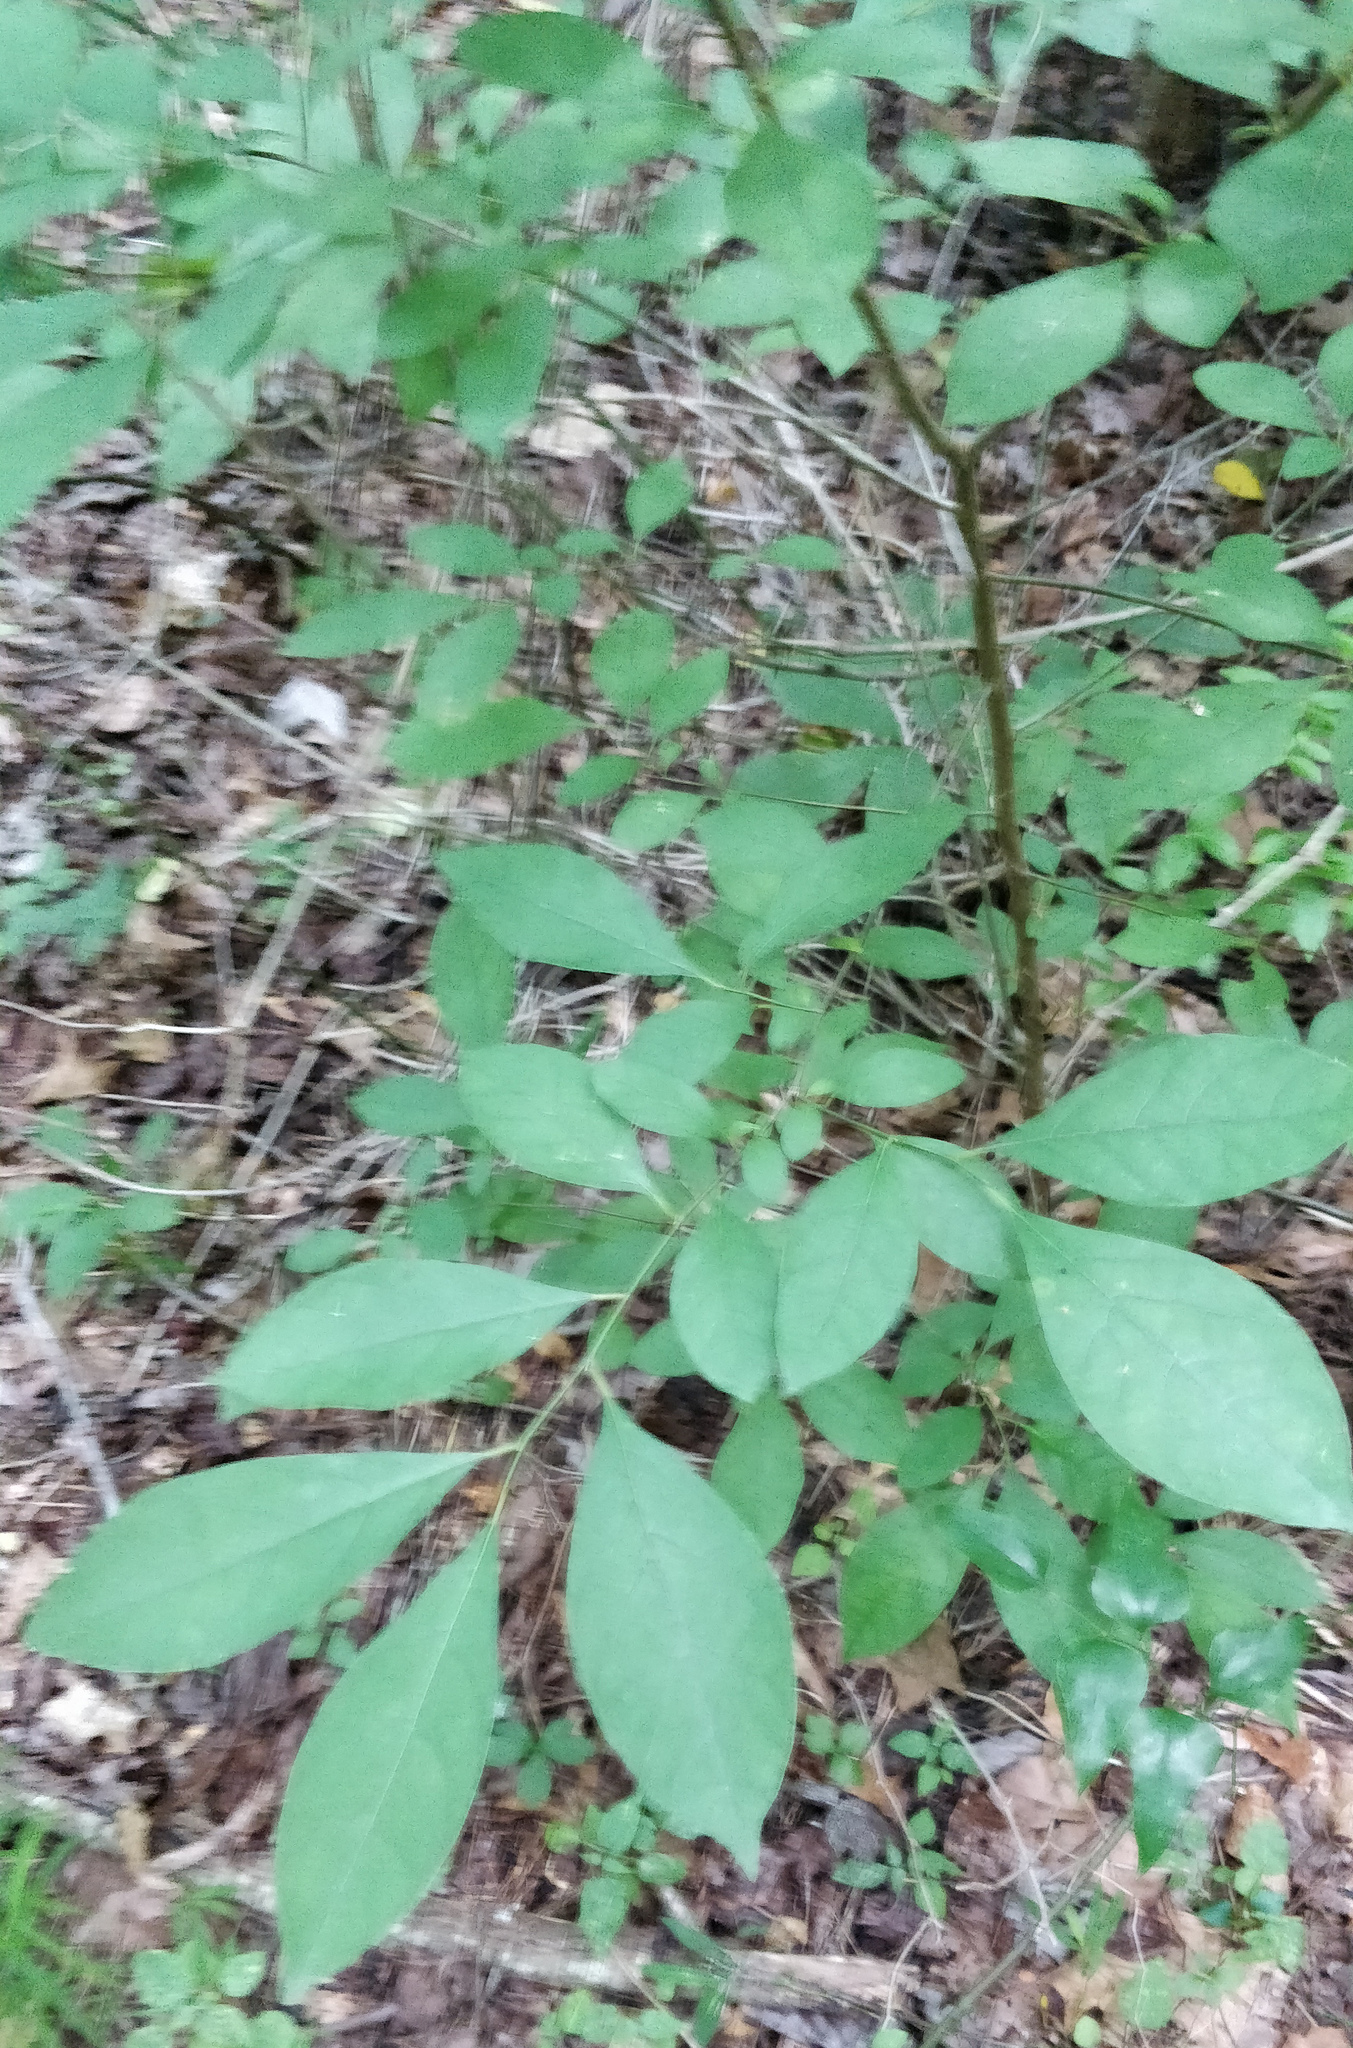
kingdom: Plantae
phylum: Tracheophyta
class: Magnoliopsida
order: Laurales
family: Lauraceae
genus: Lindera
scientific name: Lindera benzoin
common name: Spicebush
